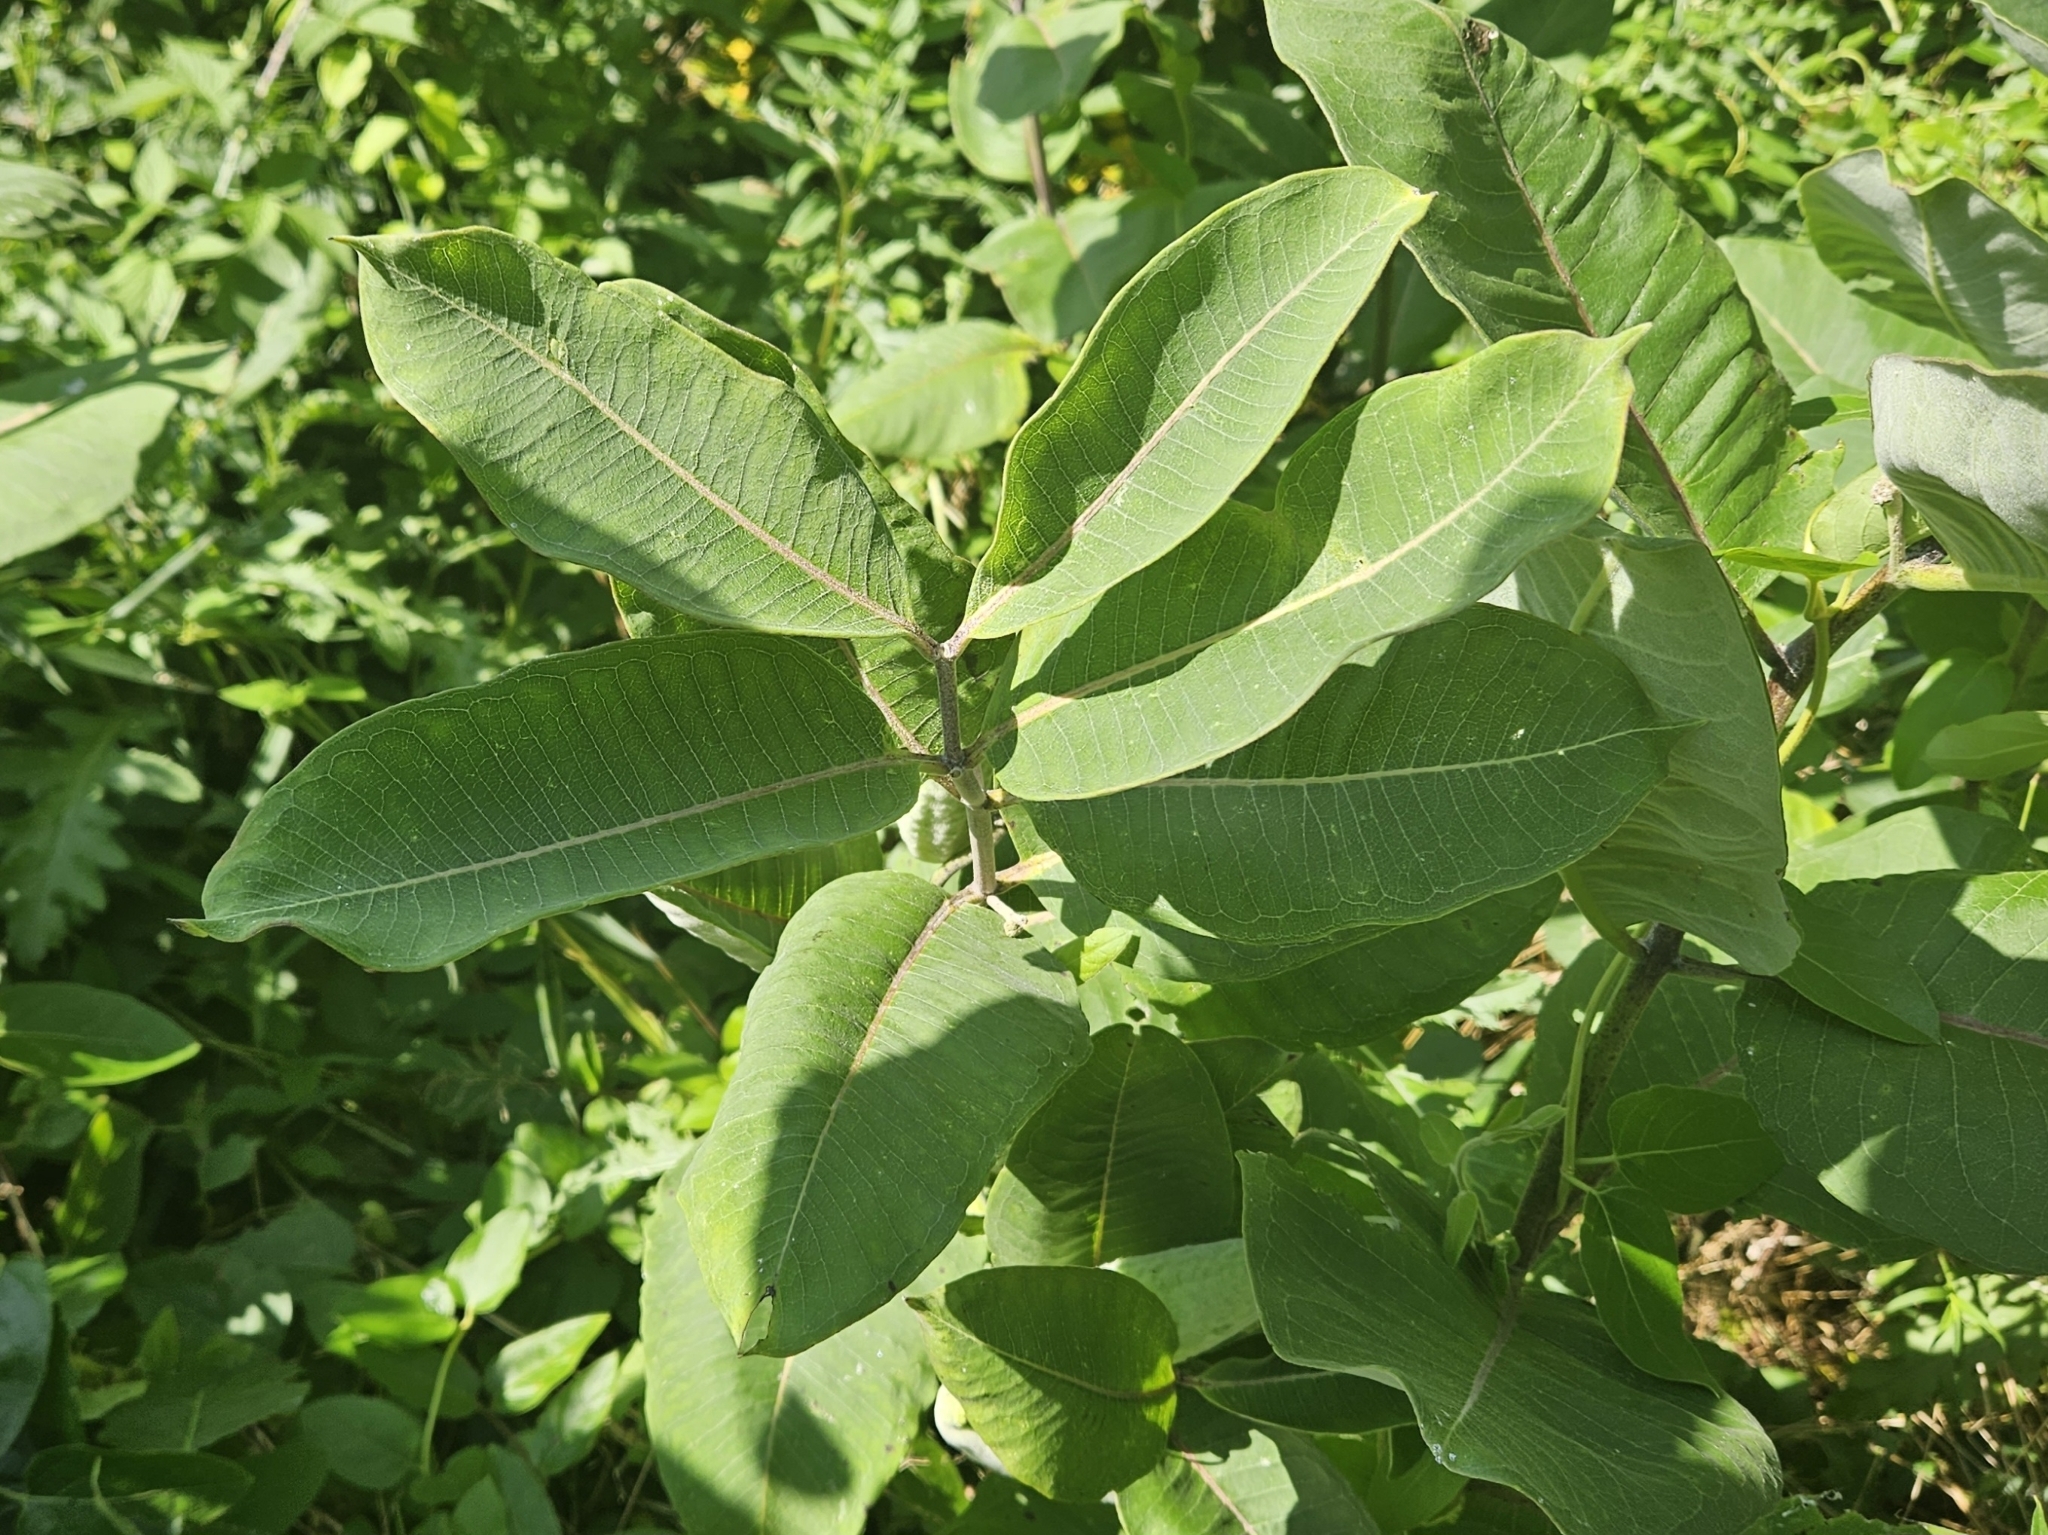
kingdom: Plantae
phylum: Tracheophyta
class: Magnoliopsida
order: Gentianales
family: Apocynaceae
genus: Asclepias
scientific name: Asclepias syriaca
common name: Common milkweed
